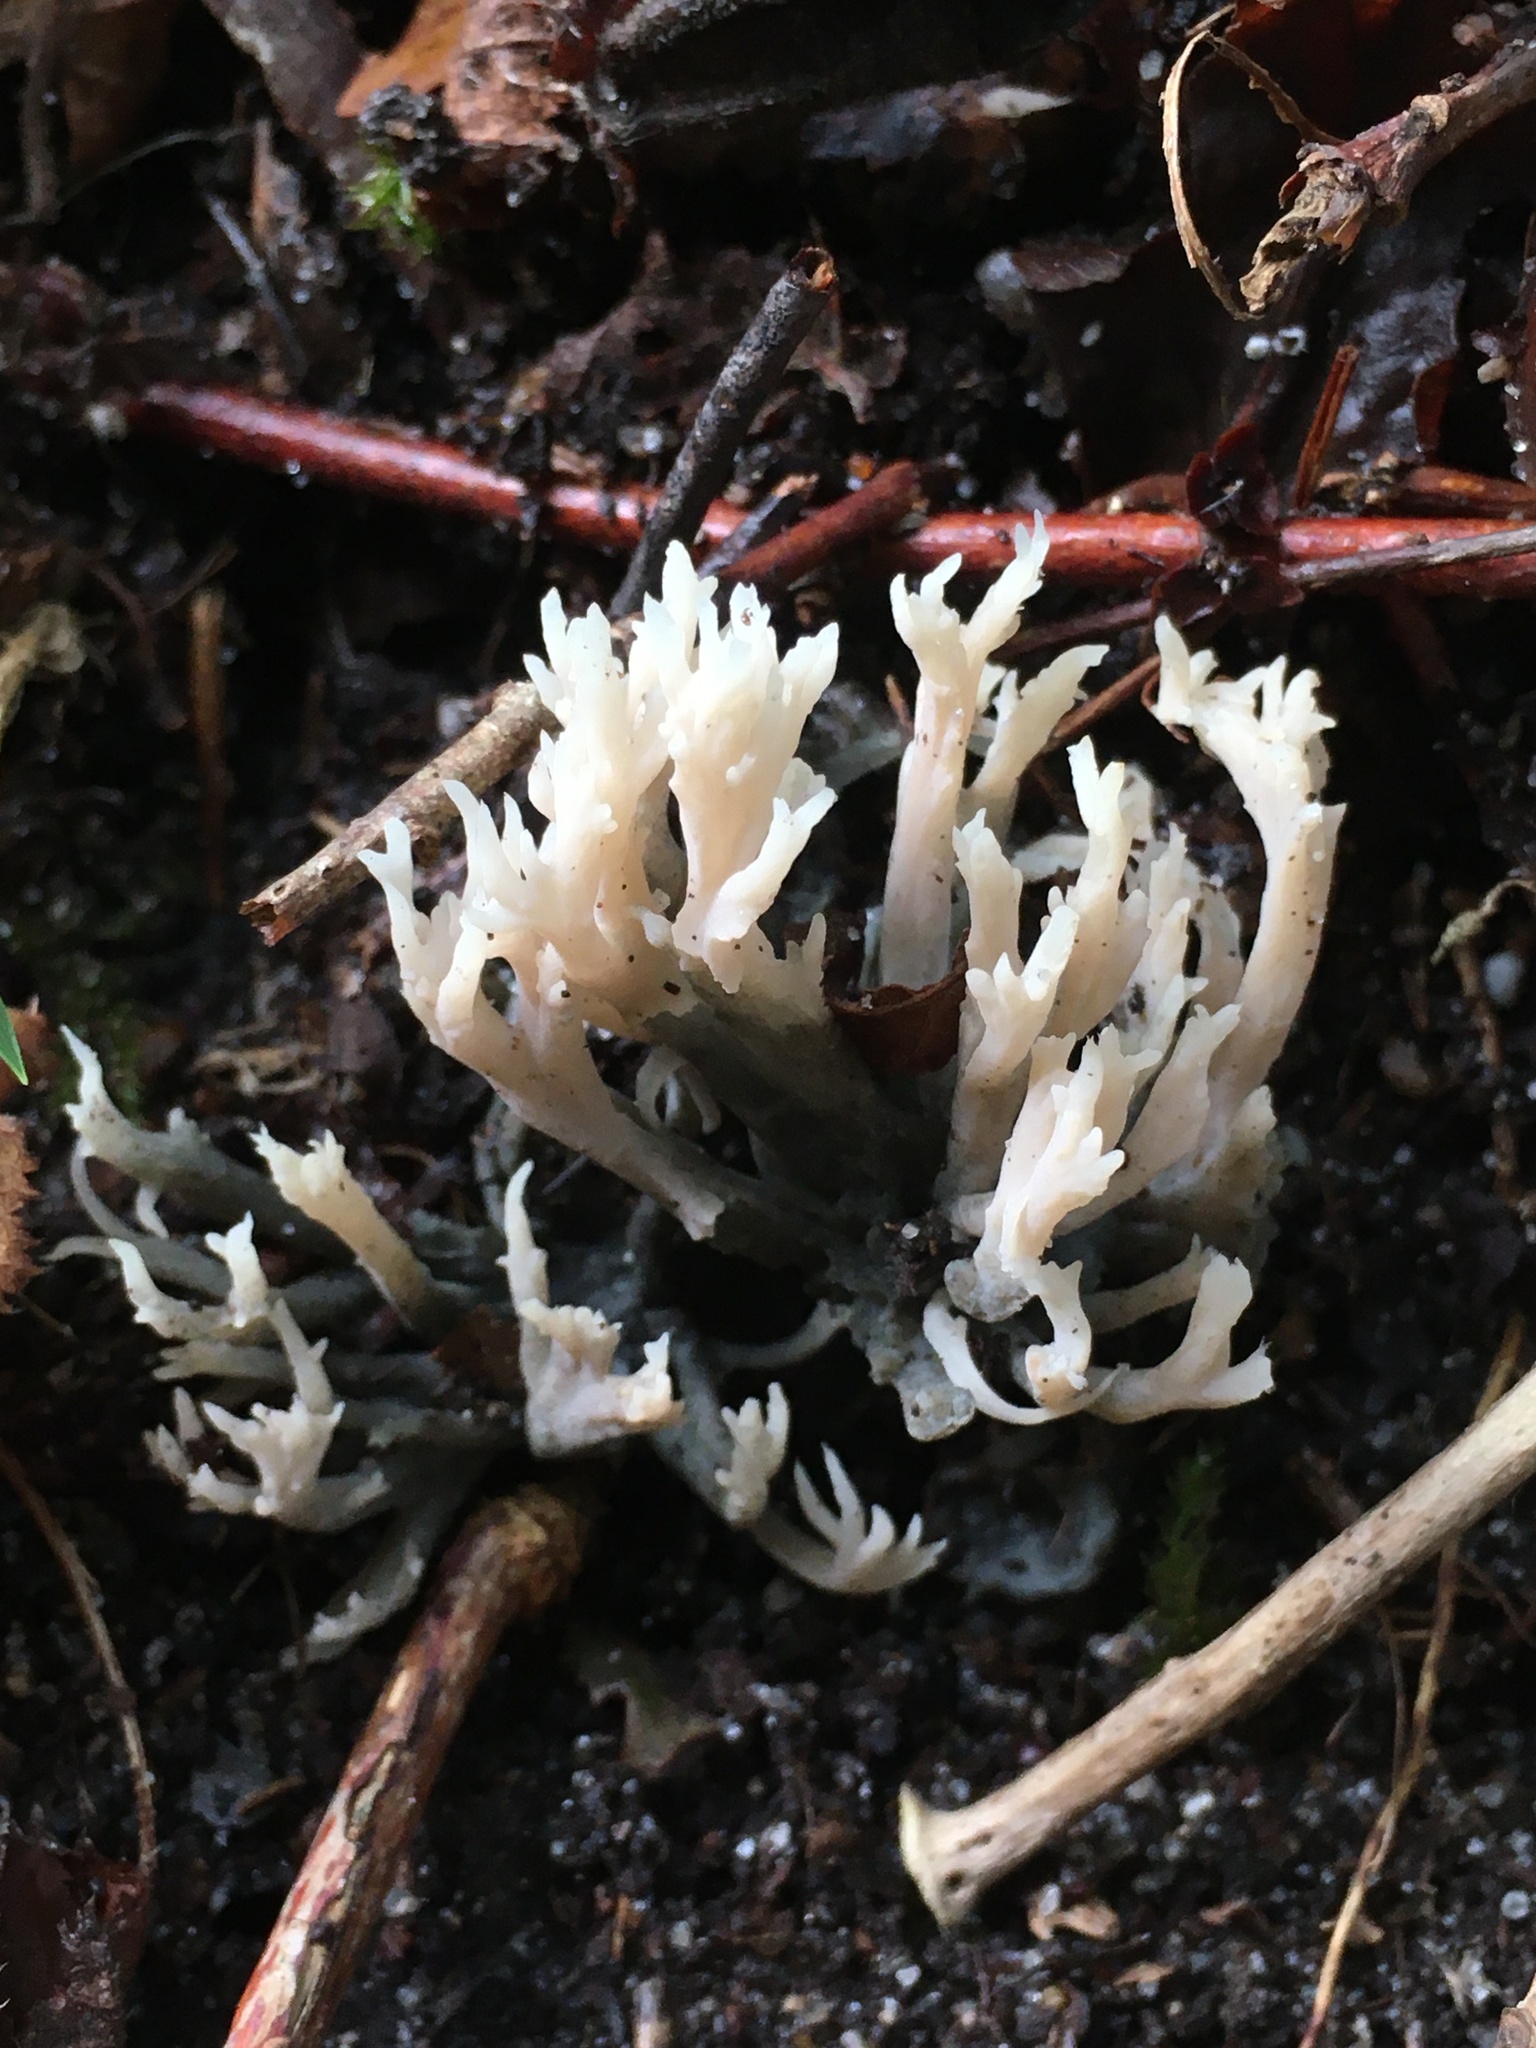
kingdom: Fungi
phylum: Basidiomycota
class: Agaricomycetes
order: Cantharellales
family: Hydnaceae
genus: Clavulina
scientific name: Clavulina coralloides
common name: Crested coral
